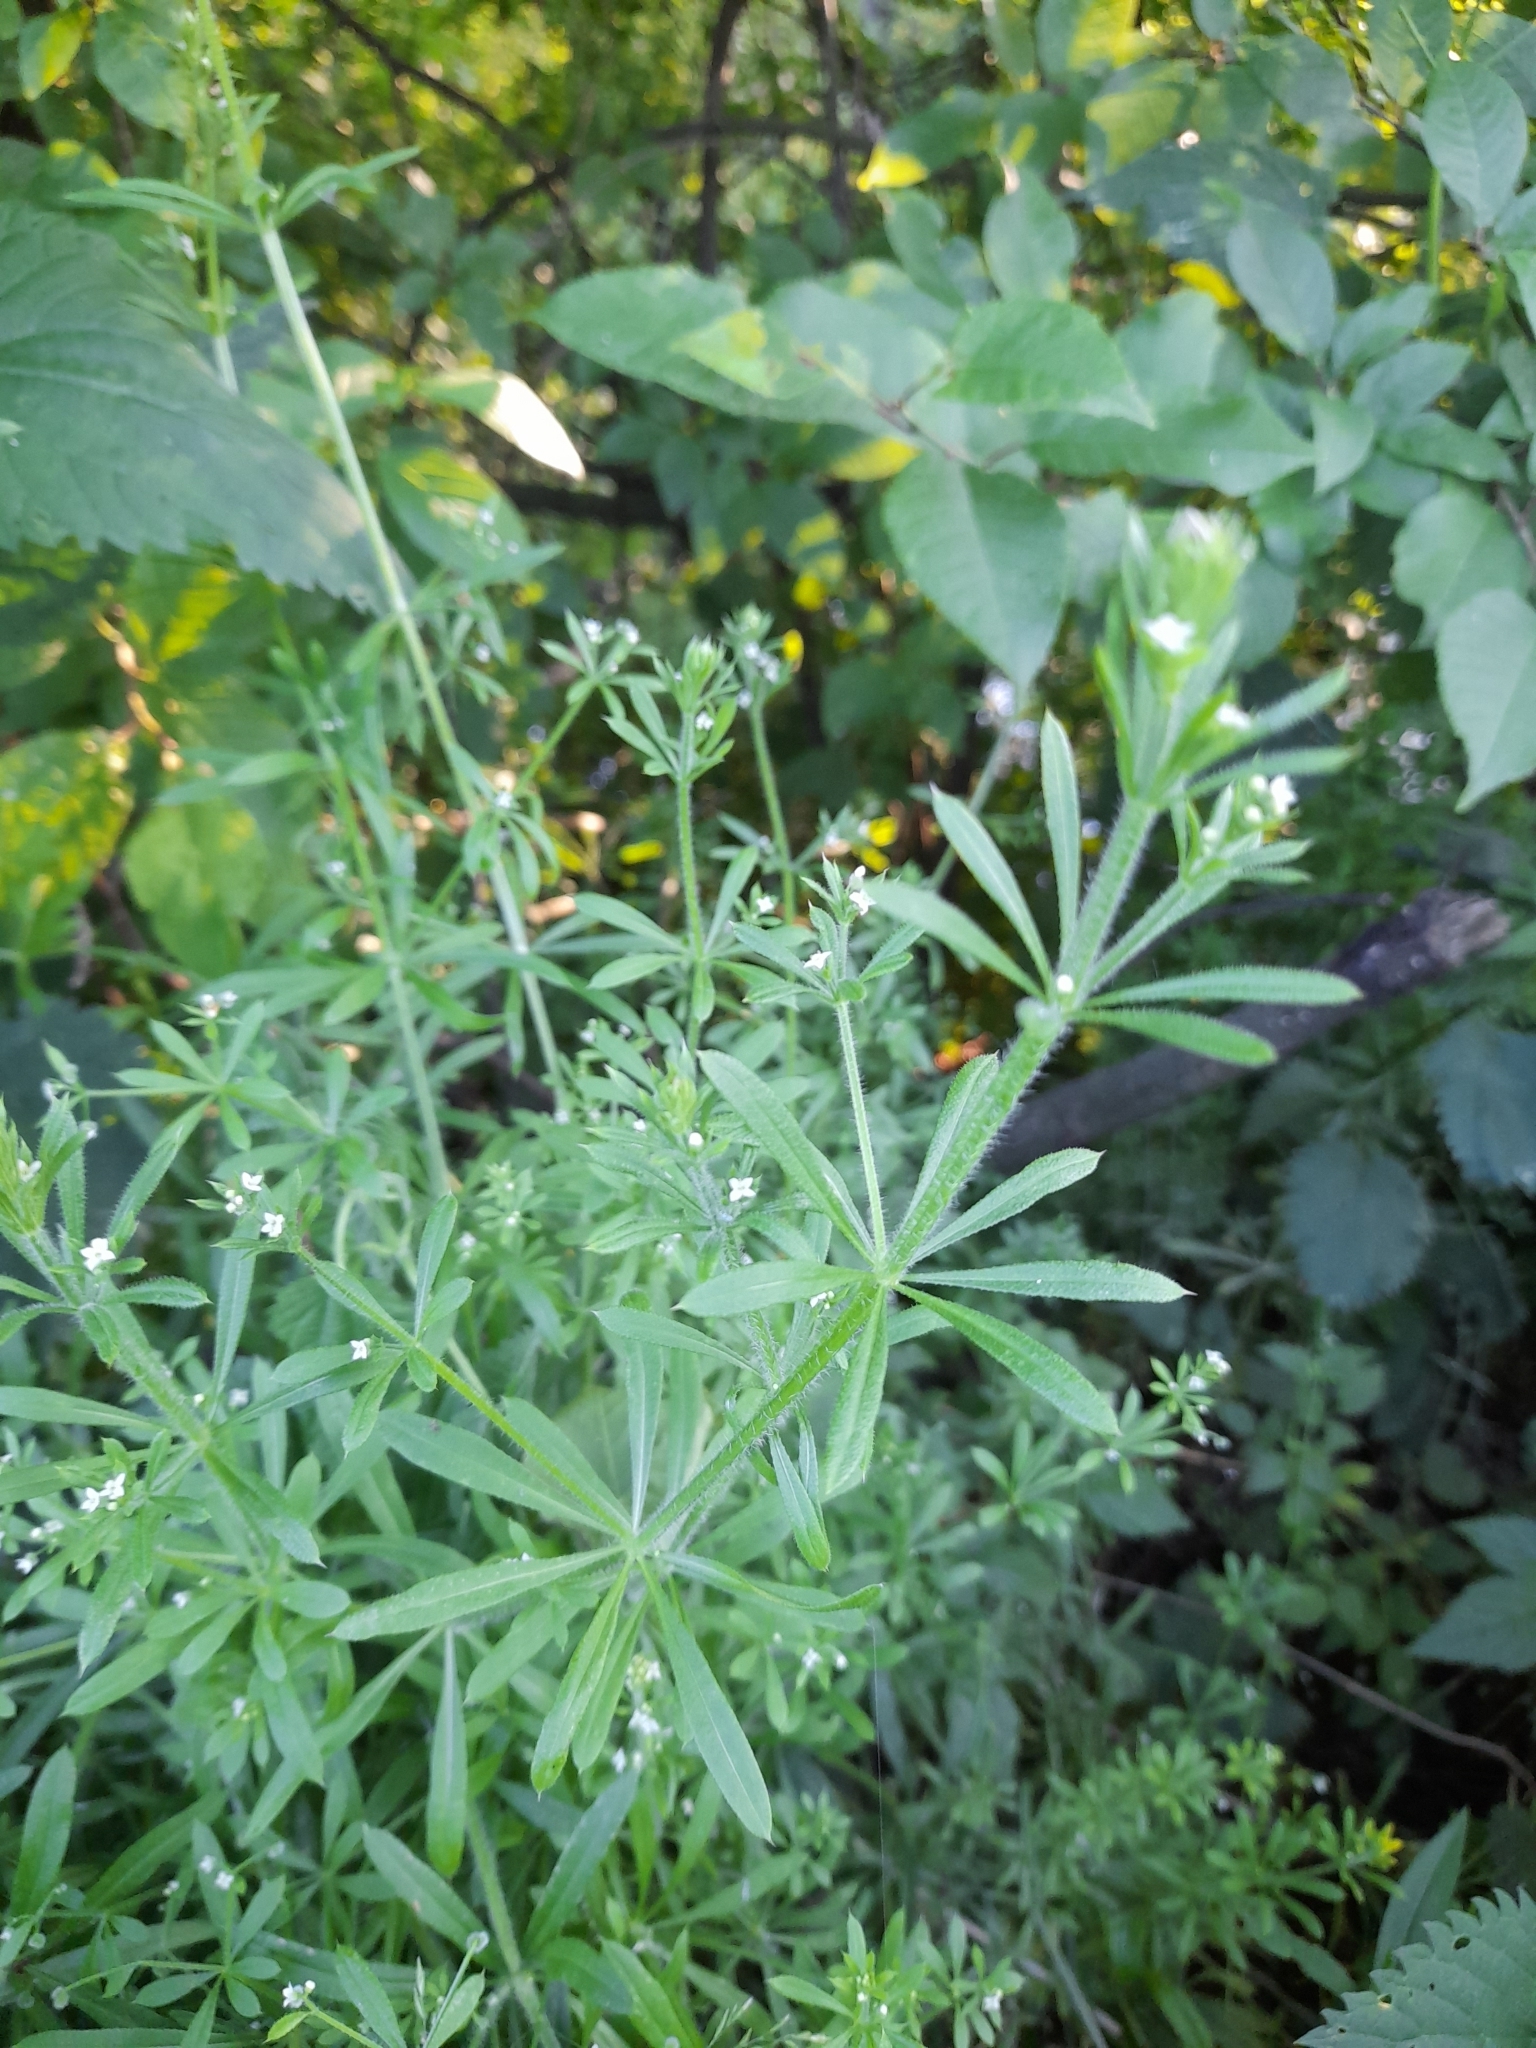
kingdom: Plantae
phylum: Tracheophyta
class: Magnoliopsida
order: Gentianales
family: Rubiaceae
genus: Galium
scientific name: Galium aparine
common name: Cleavers
